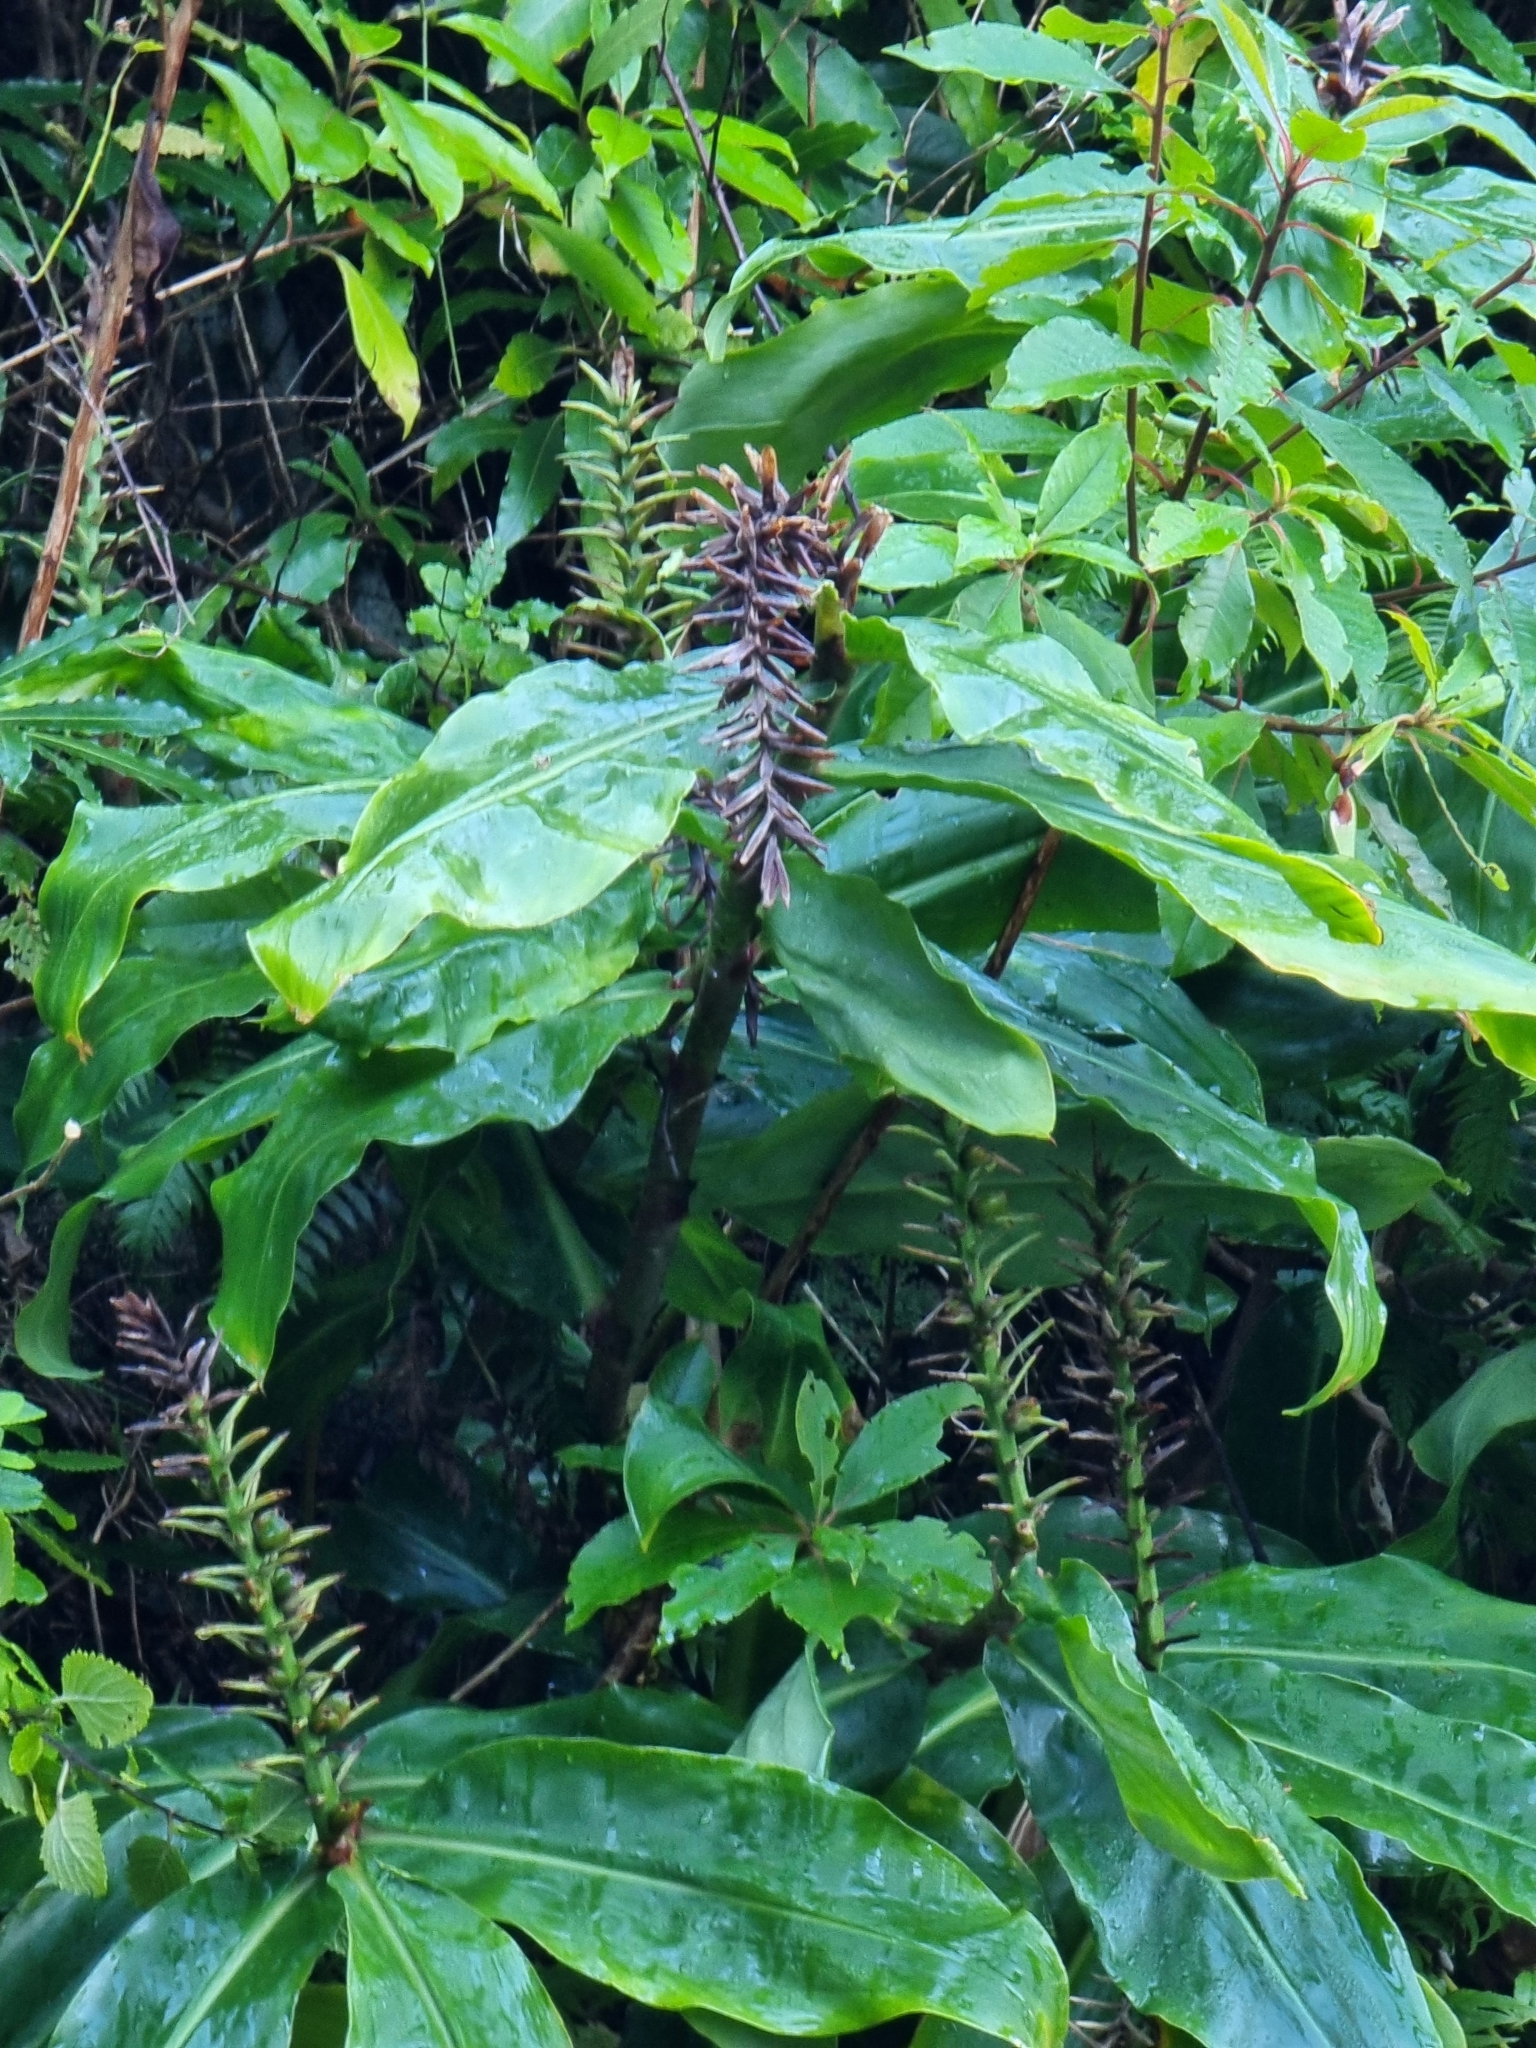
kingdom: Plantae
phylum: Tracheophyta
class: Liliopsida
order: Zingiberales
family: Zingiberaceae
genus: Hedychium
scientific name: Hedychium gardnerianum
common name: Himalayan ginger
